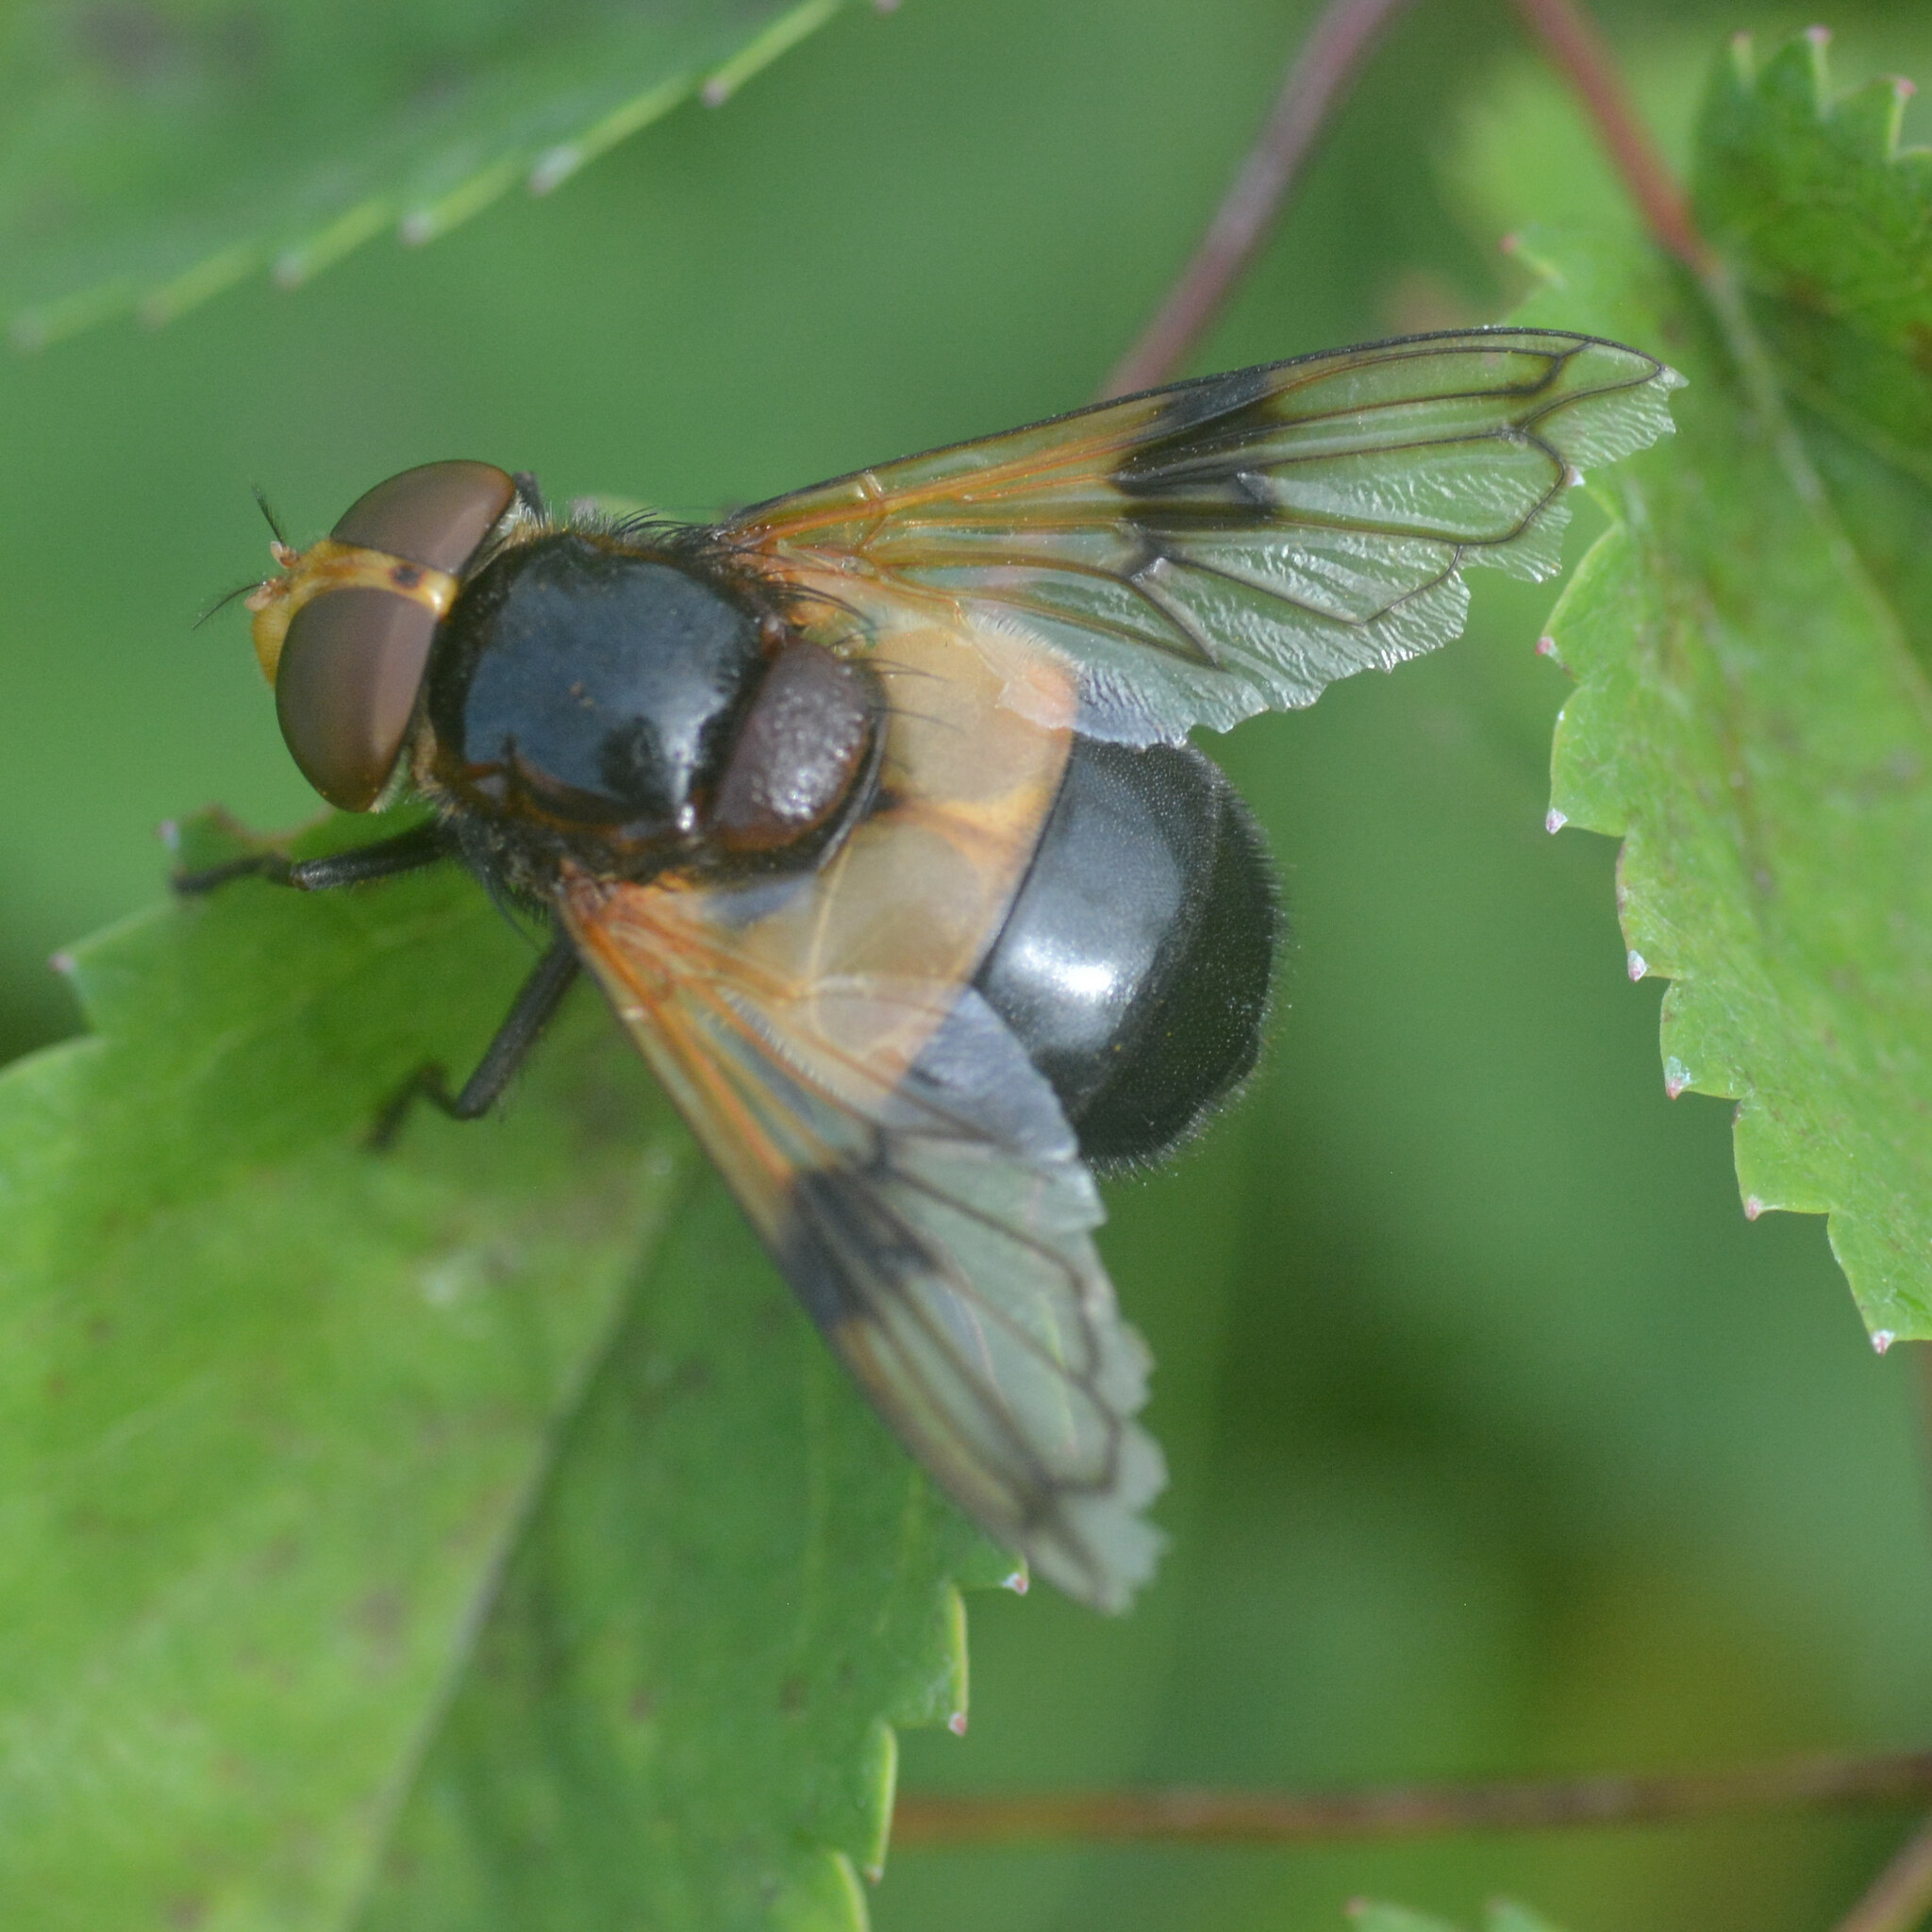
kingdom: Animalia
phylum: Arthropoda
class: Insecta
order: Diptera
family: Syrphidae
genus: Volucella
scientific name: Volucella pellucens
